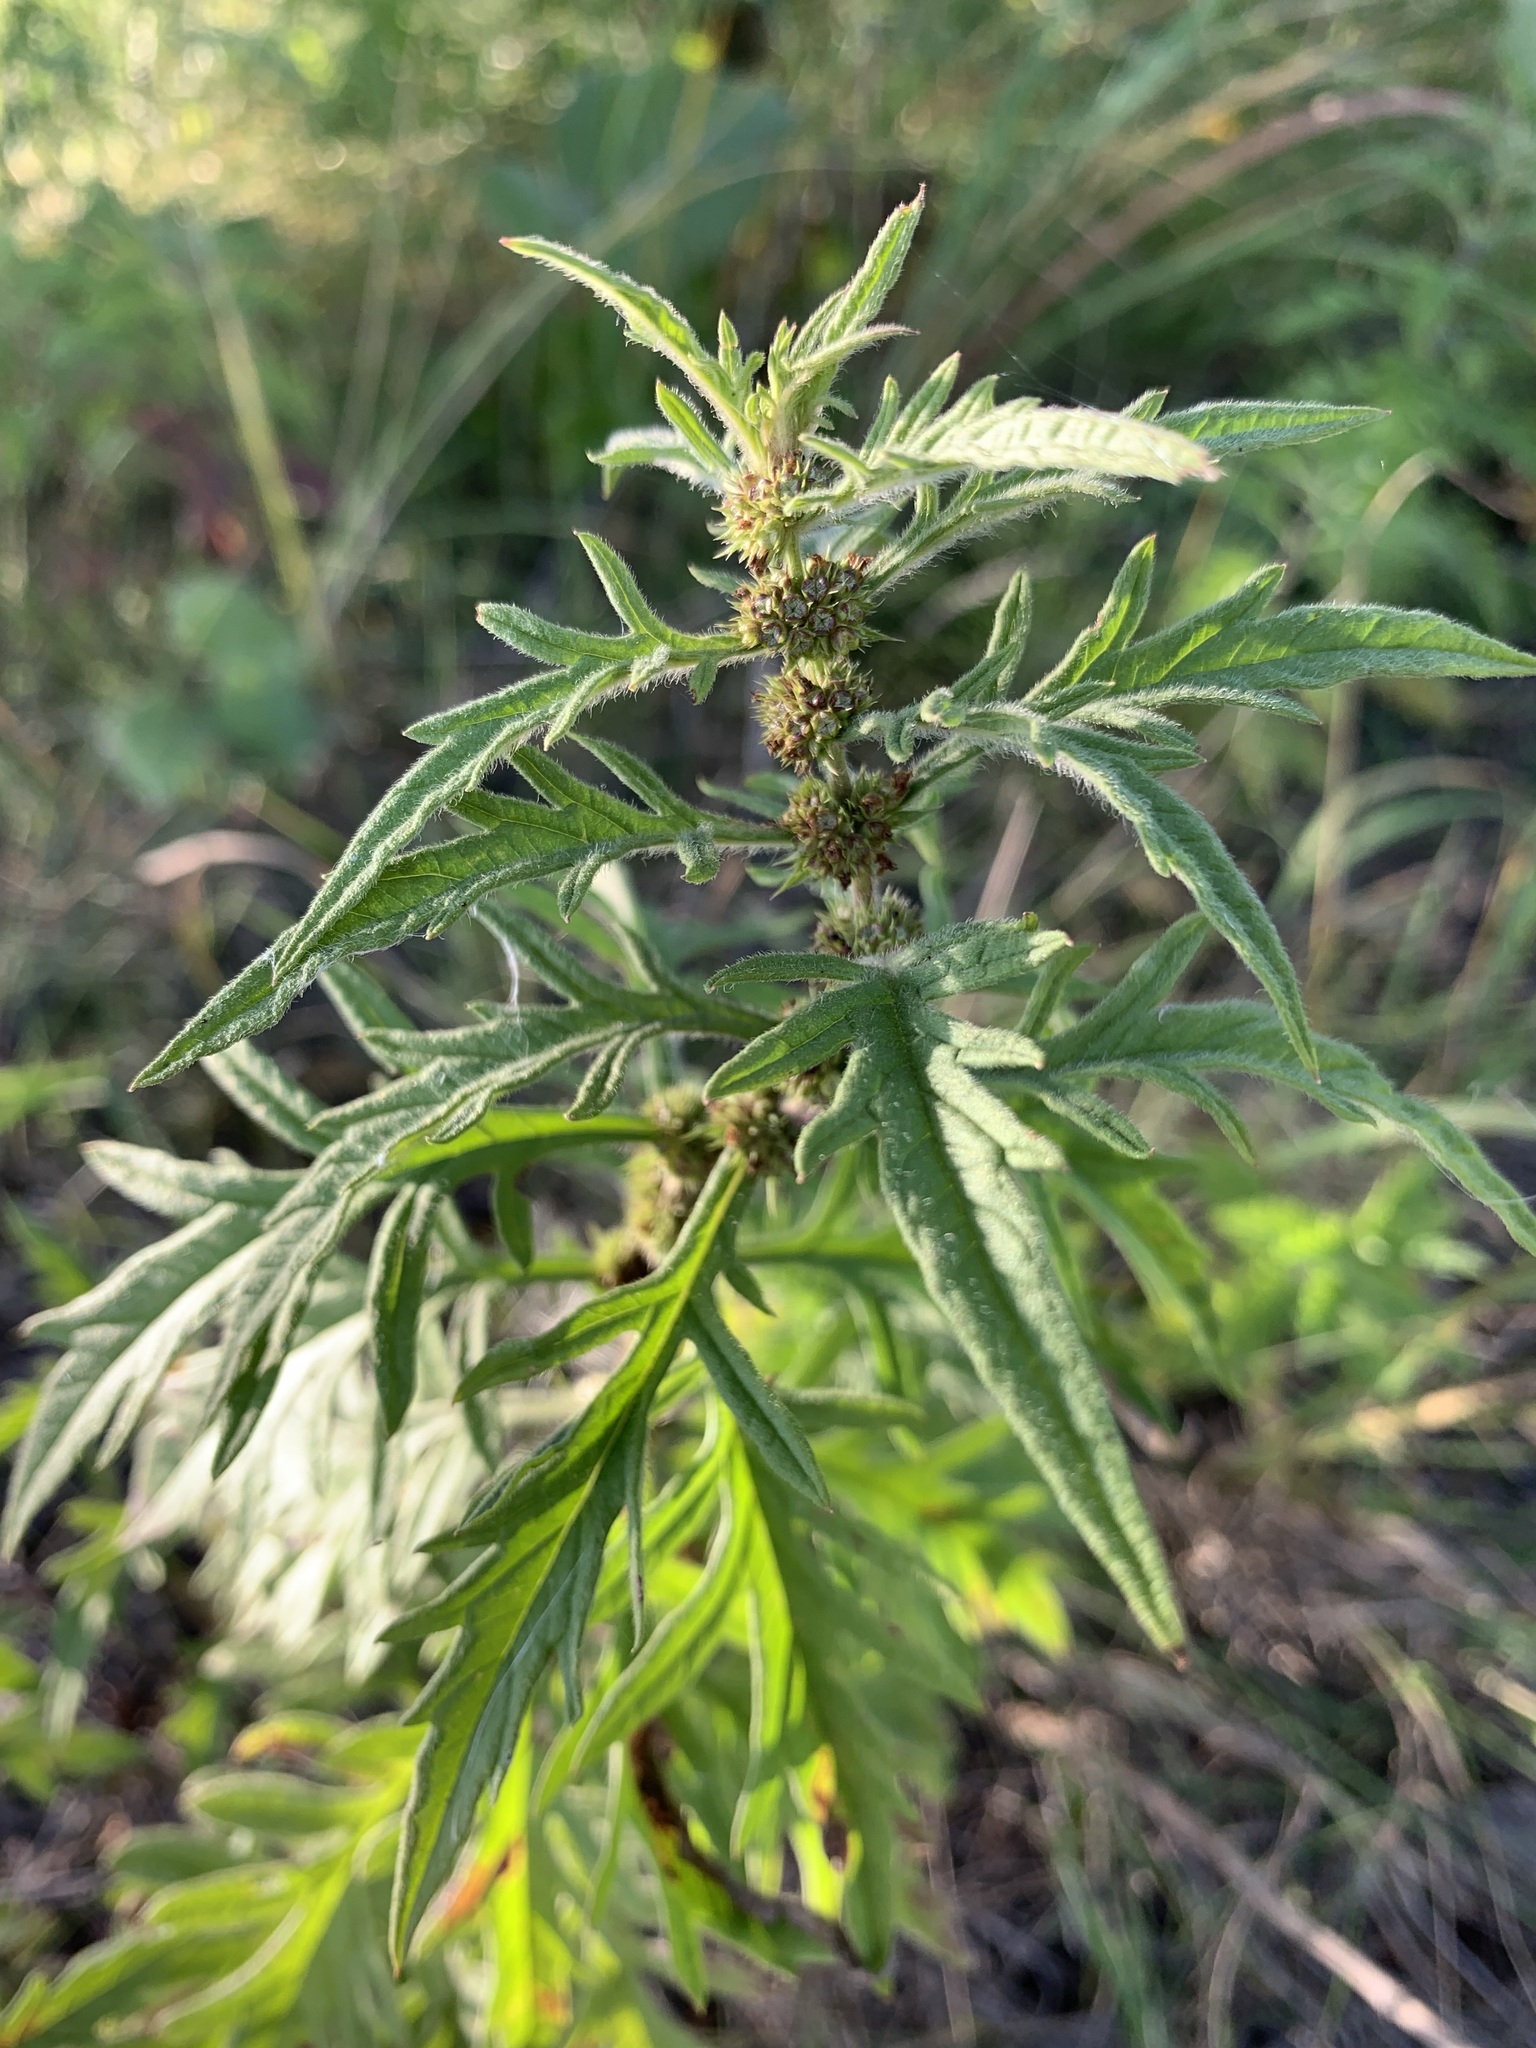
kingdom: Plantae
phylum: Tracheophyta
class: Magnoliopsida
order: Lamiales
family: Lamiaceae
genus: Lycopus
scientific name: Lycopus exaltatus
